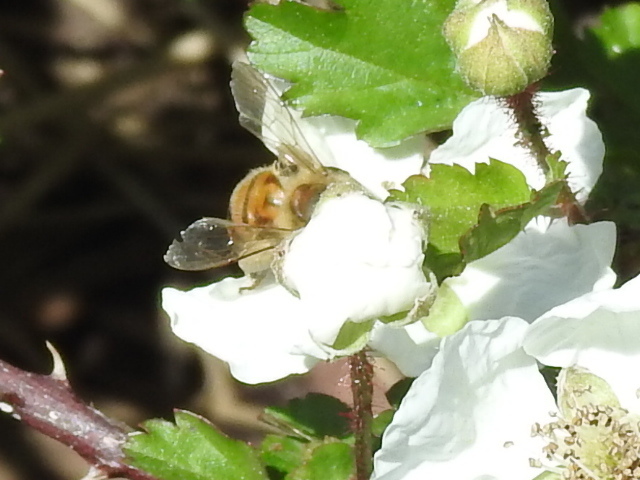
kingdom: Animalia
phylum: Arthropoda
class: Insecta
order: Hymenoptera
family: Apidae
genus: Apis
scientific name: Apis mellifera
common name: Honey bee
